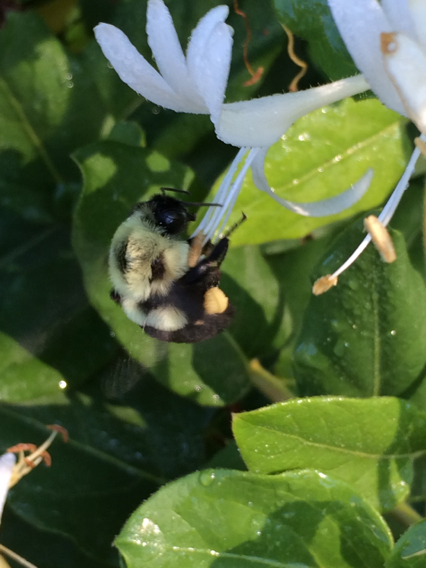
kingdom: Animalia
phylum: Arthropoda
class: Insecta
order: Hymenoptera
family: Apidae
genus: Bombus
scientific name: Bombus impatiens
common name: Common eastern bumble bee
